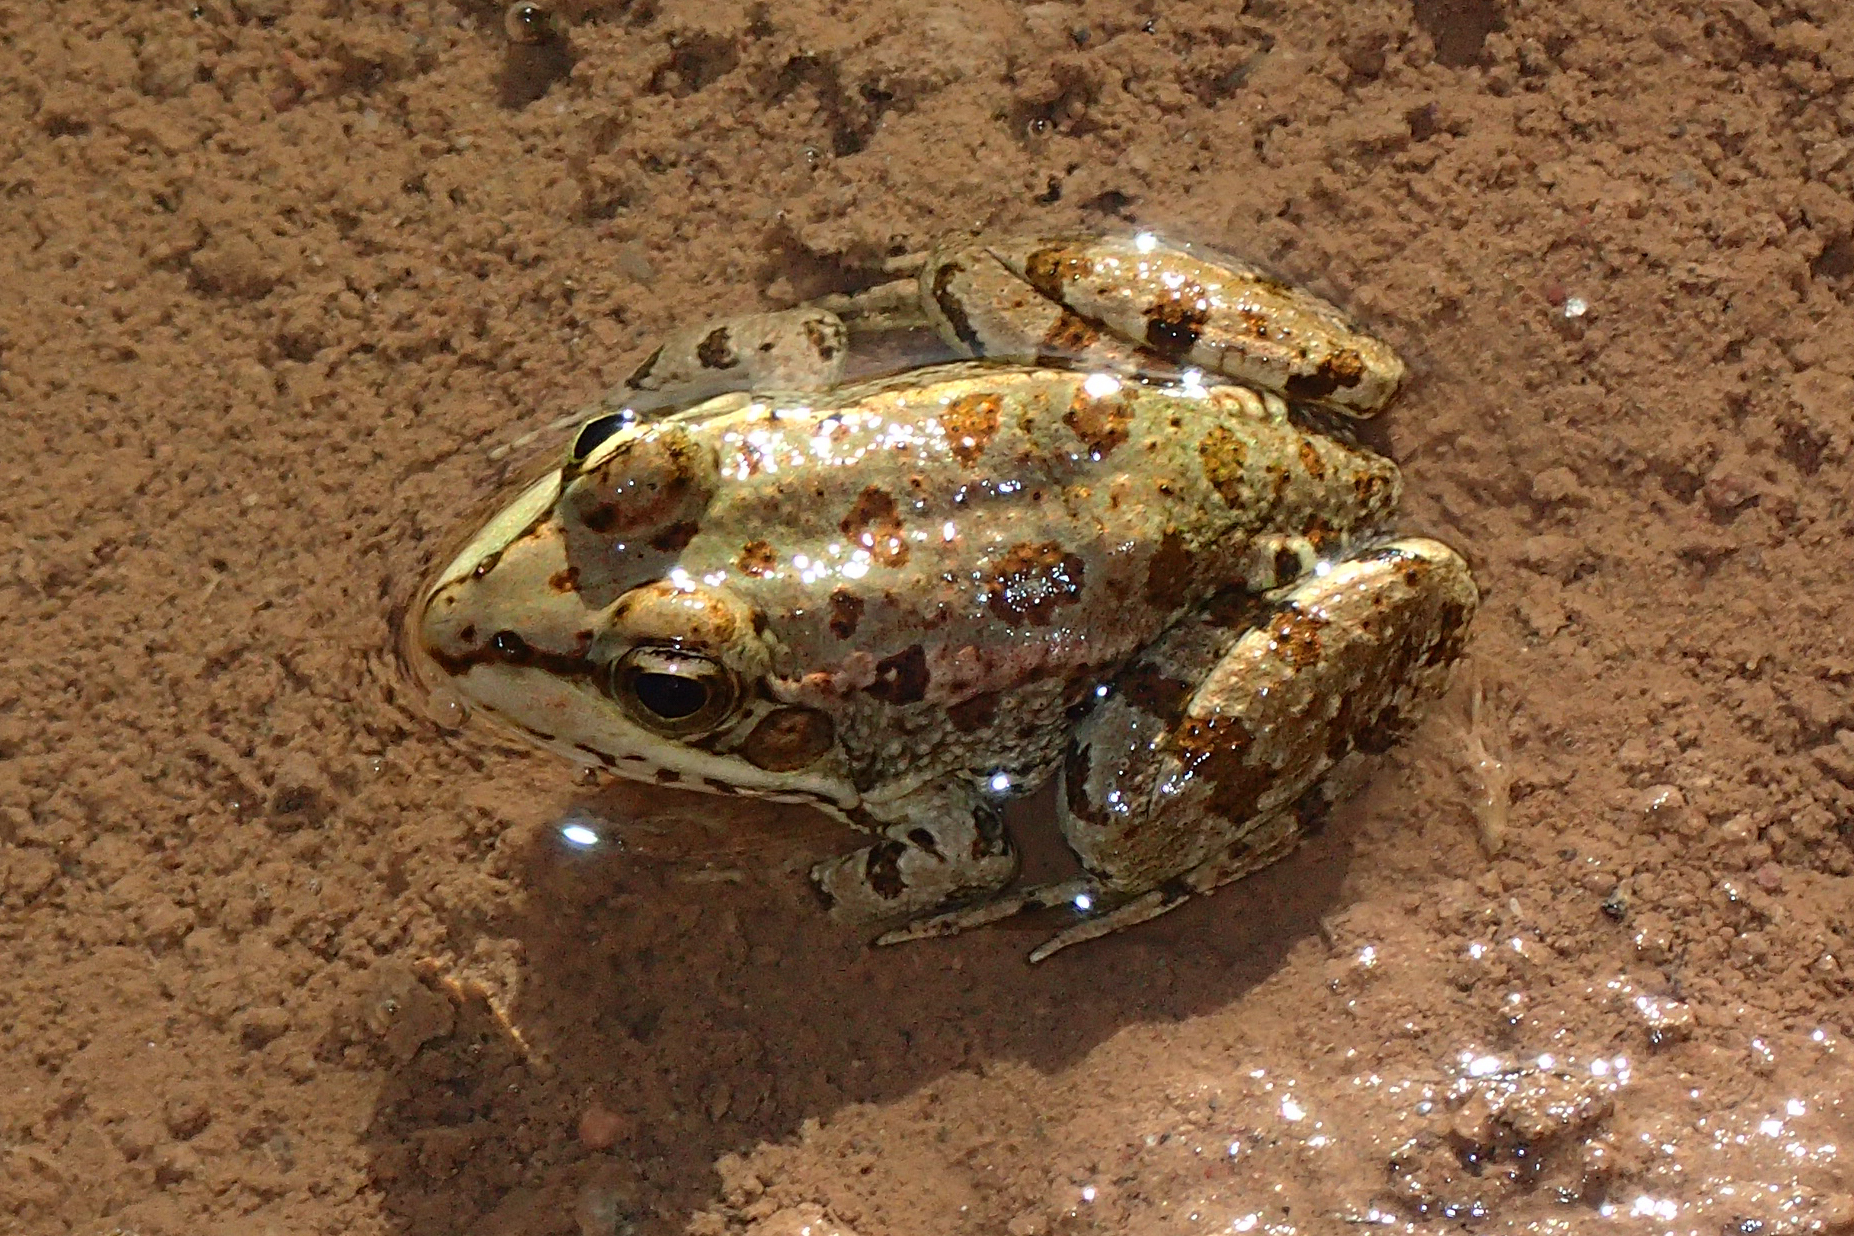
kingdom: Animalia
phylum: Chordata
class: Amphibia
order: Anura
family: Ranidae
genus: Pelophylax
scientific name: Pelophylax saharicus
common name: Sahara frog
